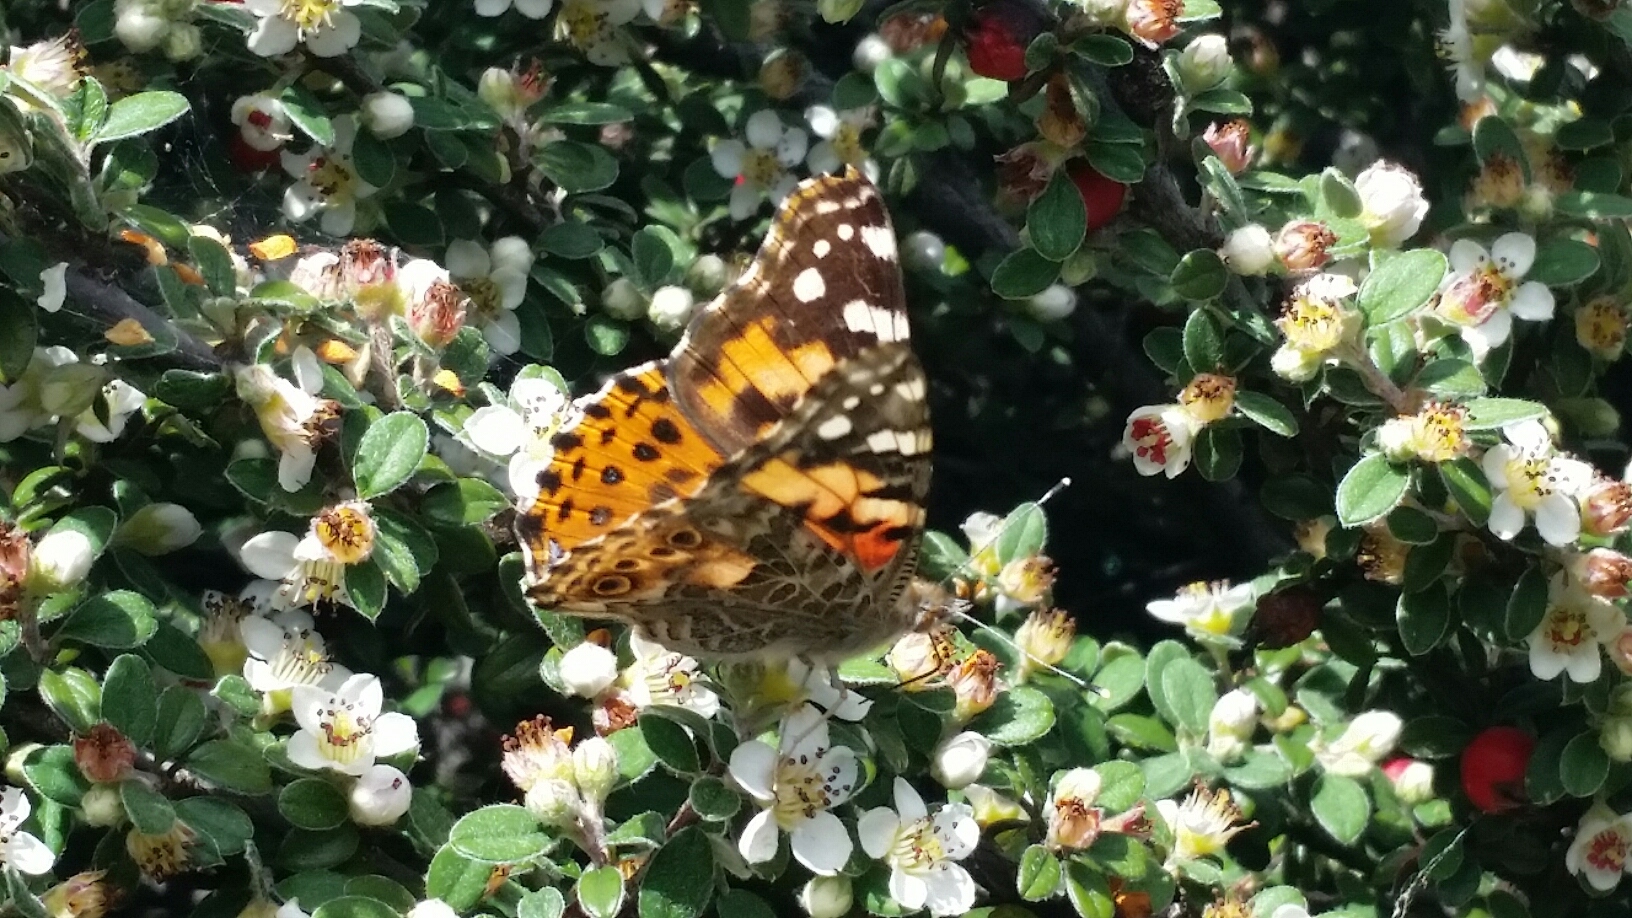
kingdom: Animalia
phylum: Arthropoda
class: Insecta
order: Lepidoptera
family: Nymphalidae
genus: Vanessa
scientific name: Vanessa cardui
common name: Painted lady
